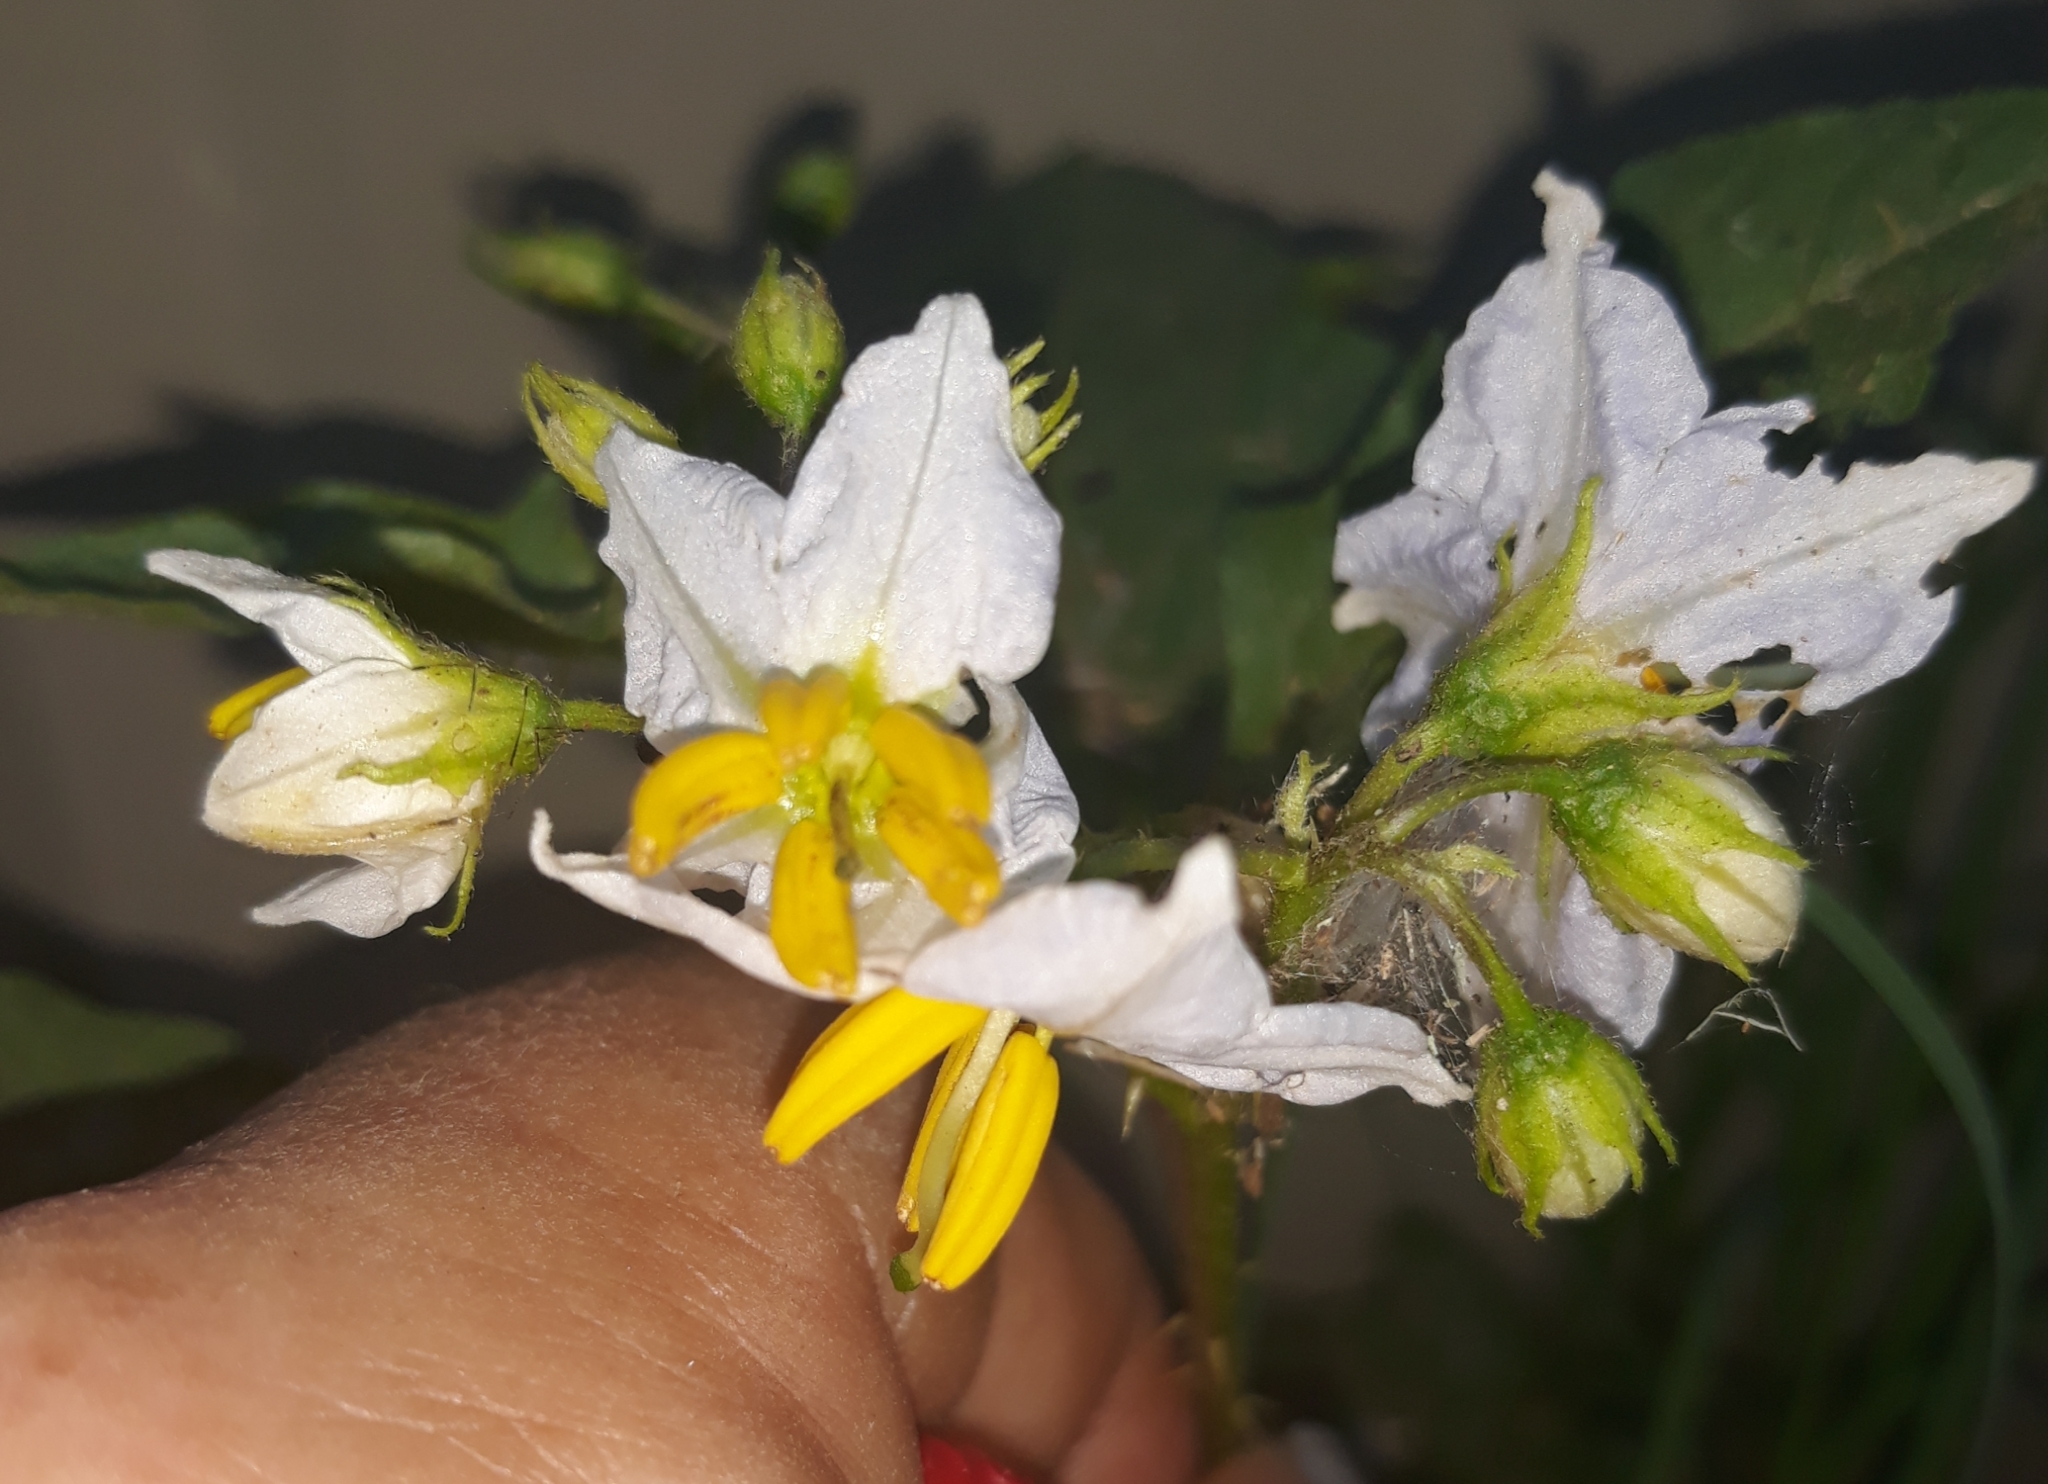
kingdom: Plantae
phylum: Tracheophyta
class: Magnoliopsida
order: Solanales
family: Solanaceae
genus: Solanum
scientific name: Solanum carolinense
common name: Horse-nettle
